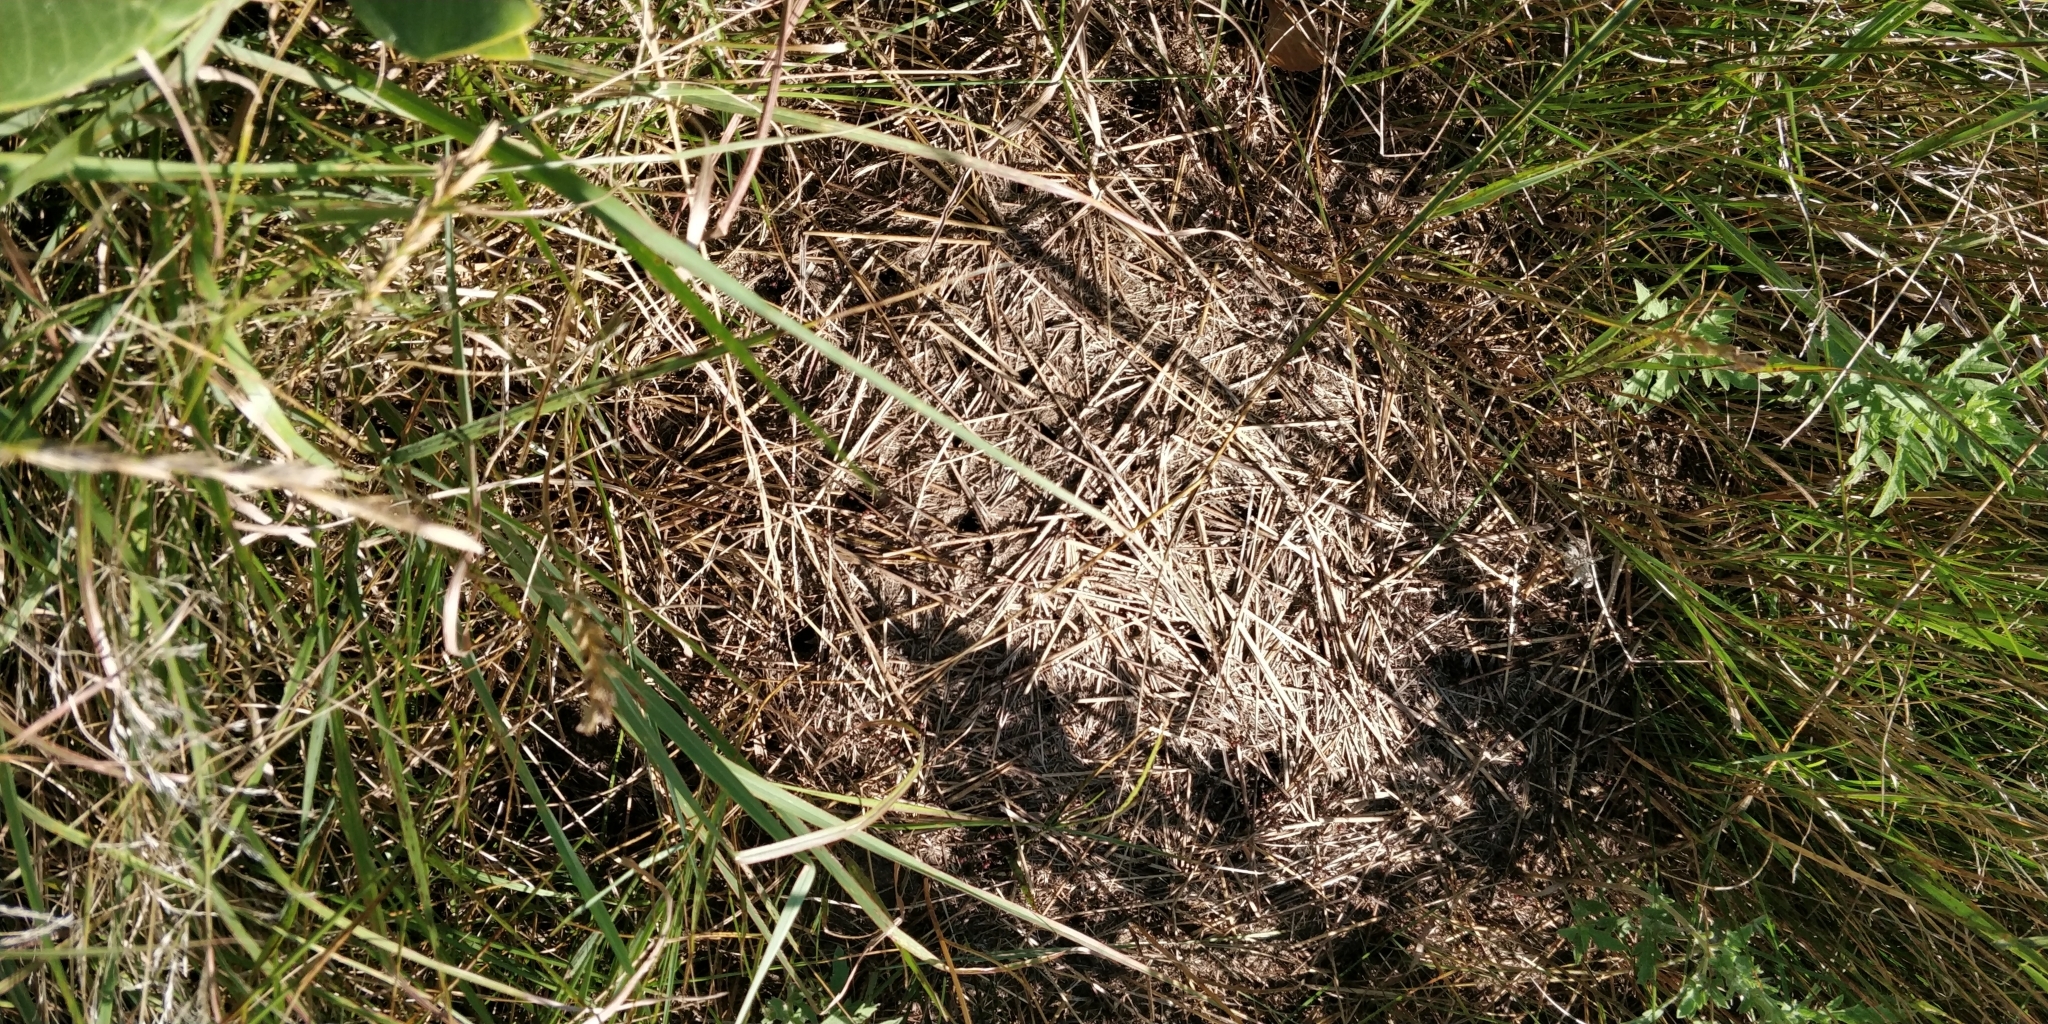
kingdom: Animalia
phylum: Arthropoda
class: Insecta
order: Hymenoptera
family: Formicidae
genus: Formica
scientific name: Formica obscuripes
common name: Western thatching ant
